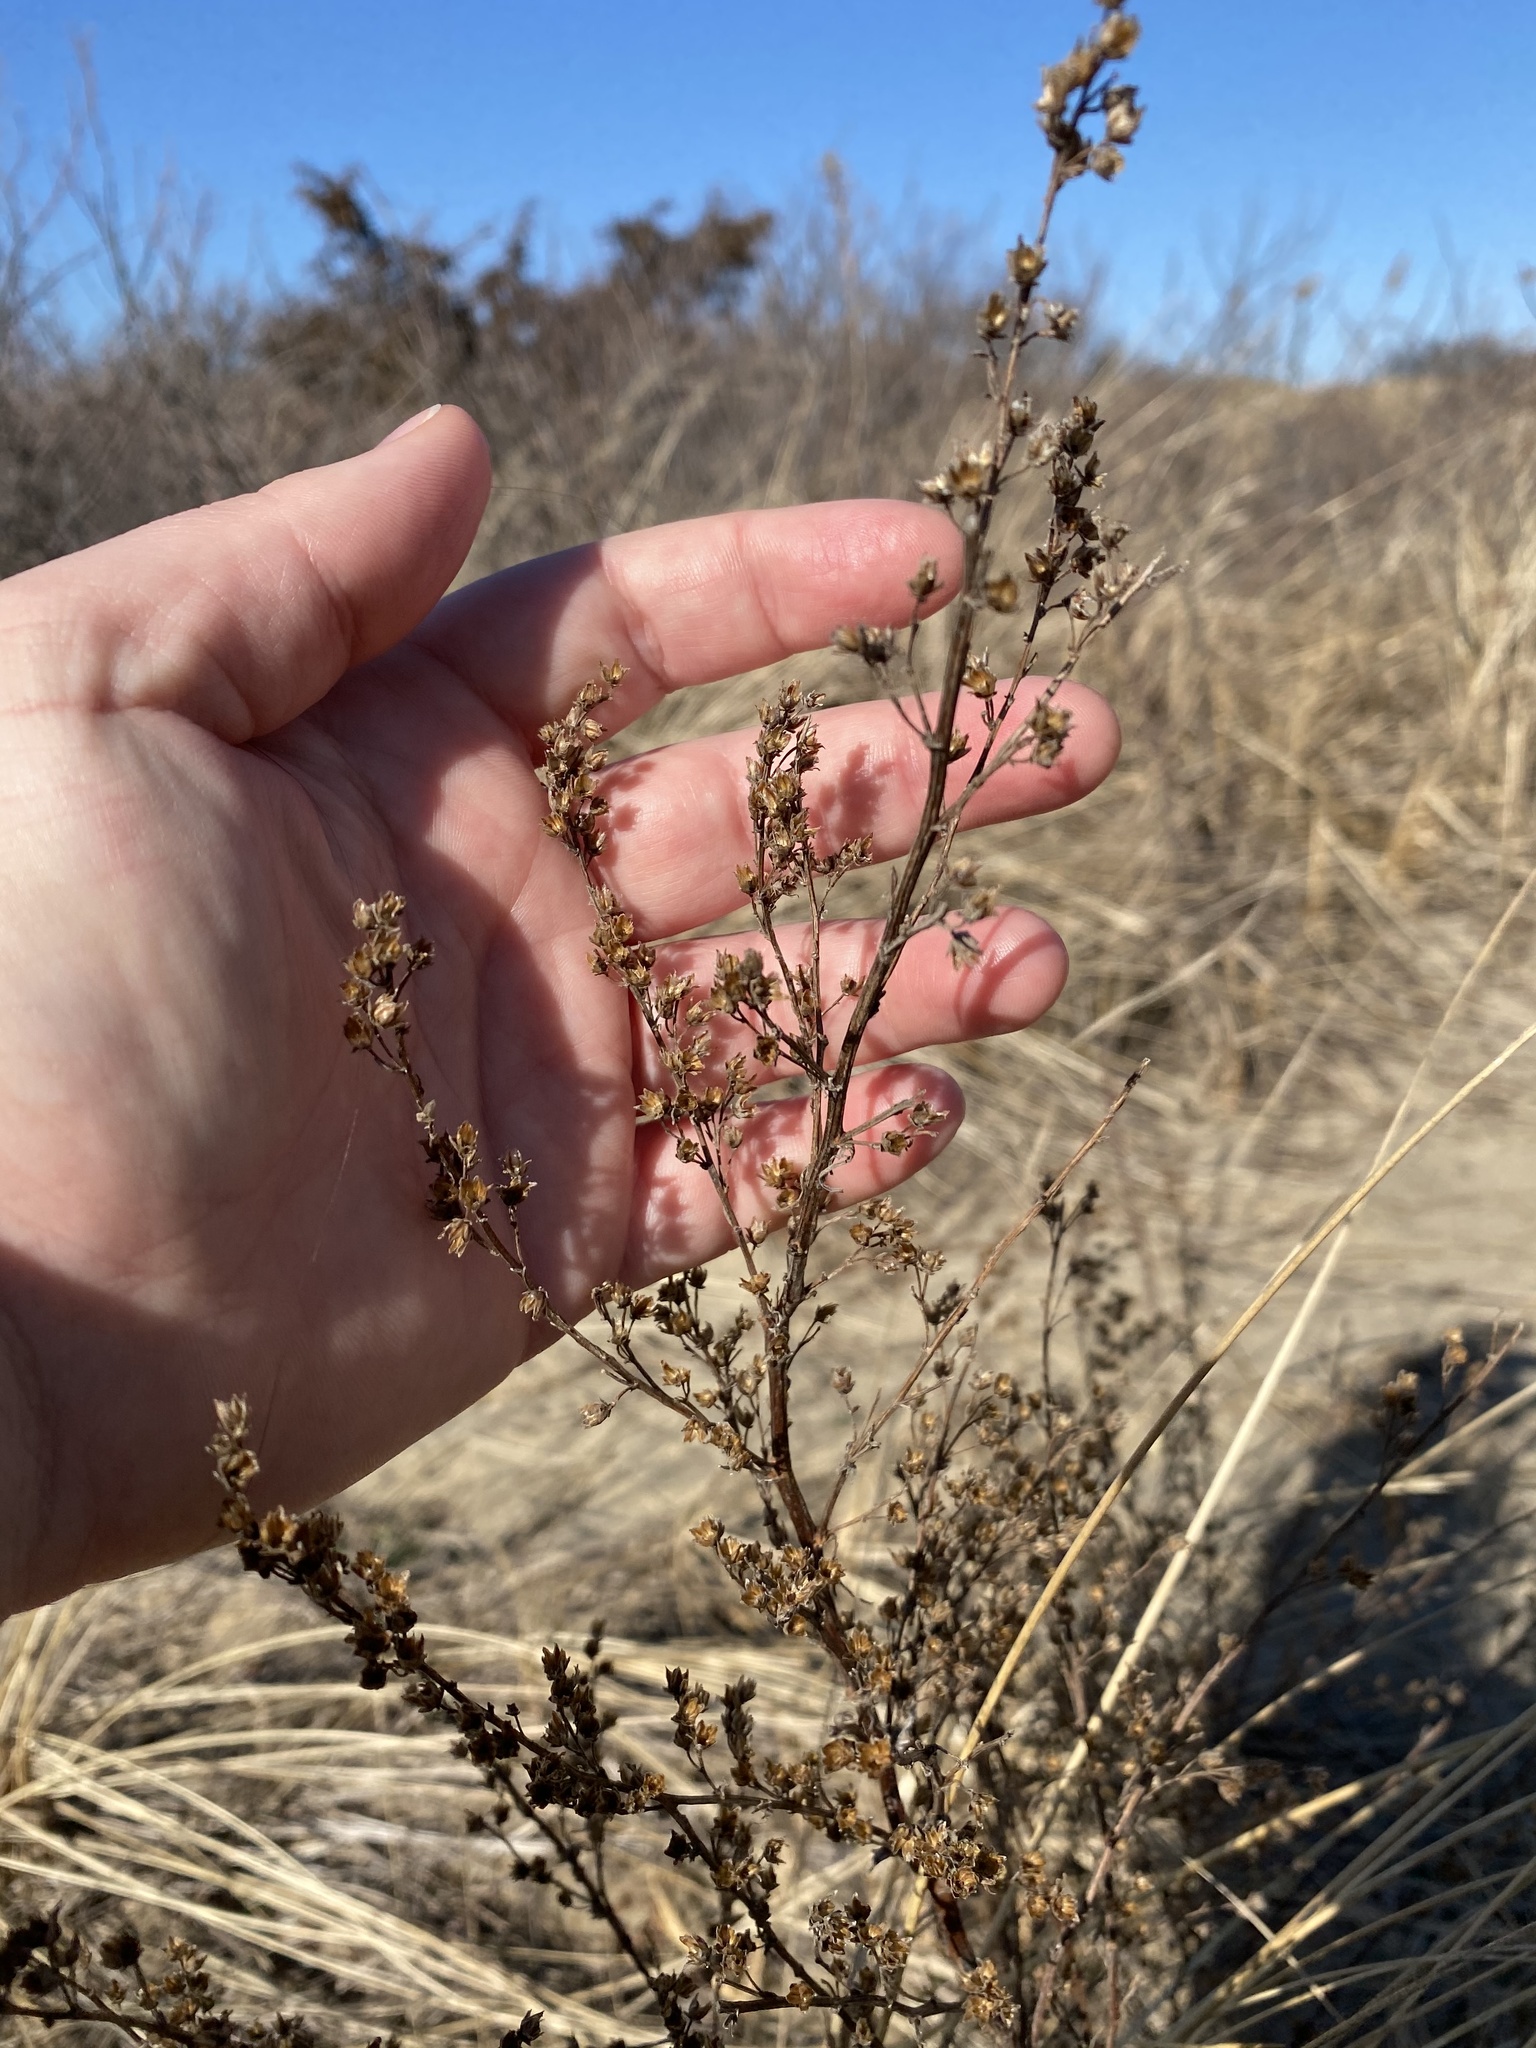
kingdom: Plantae
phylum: Tracheophyta
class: Magnoliopsida
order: Asterales
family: Asteraceae
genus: Artemisia
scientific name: Artemisia campestris
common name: Field wormwood
